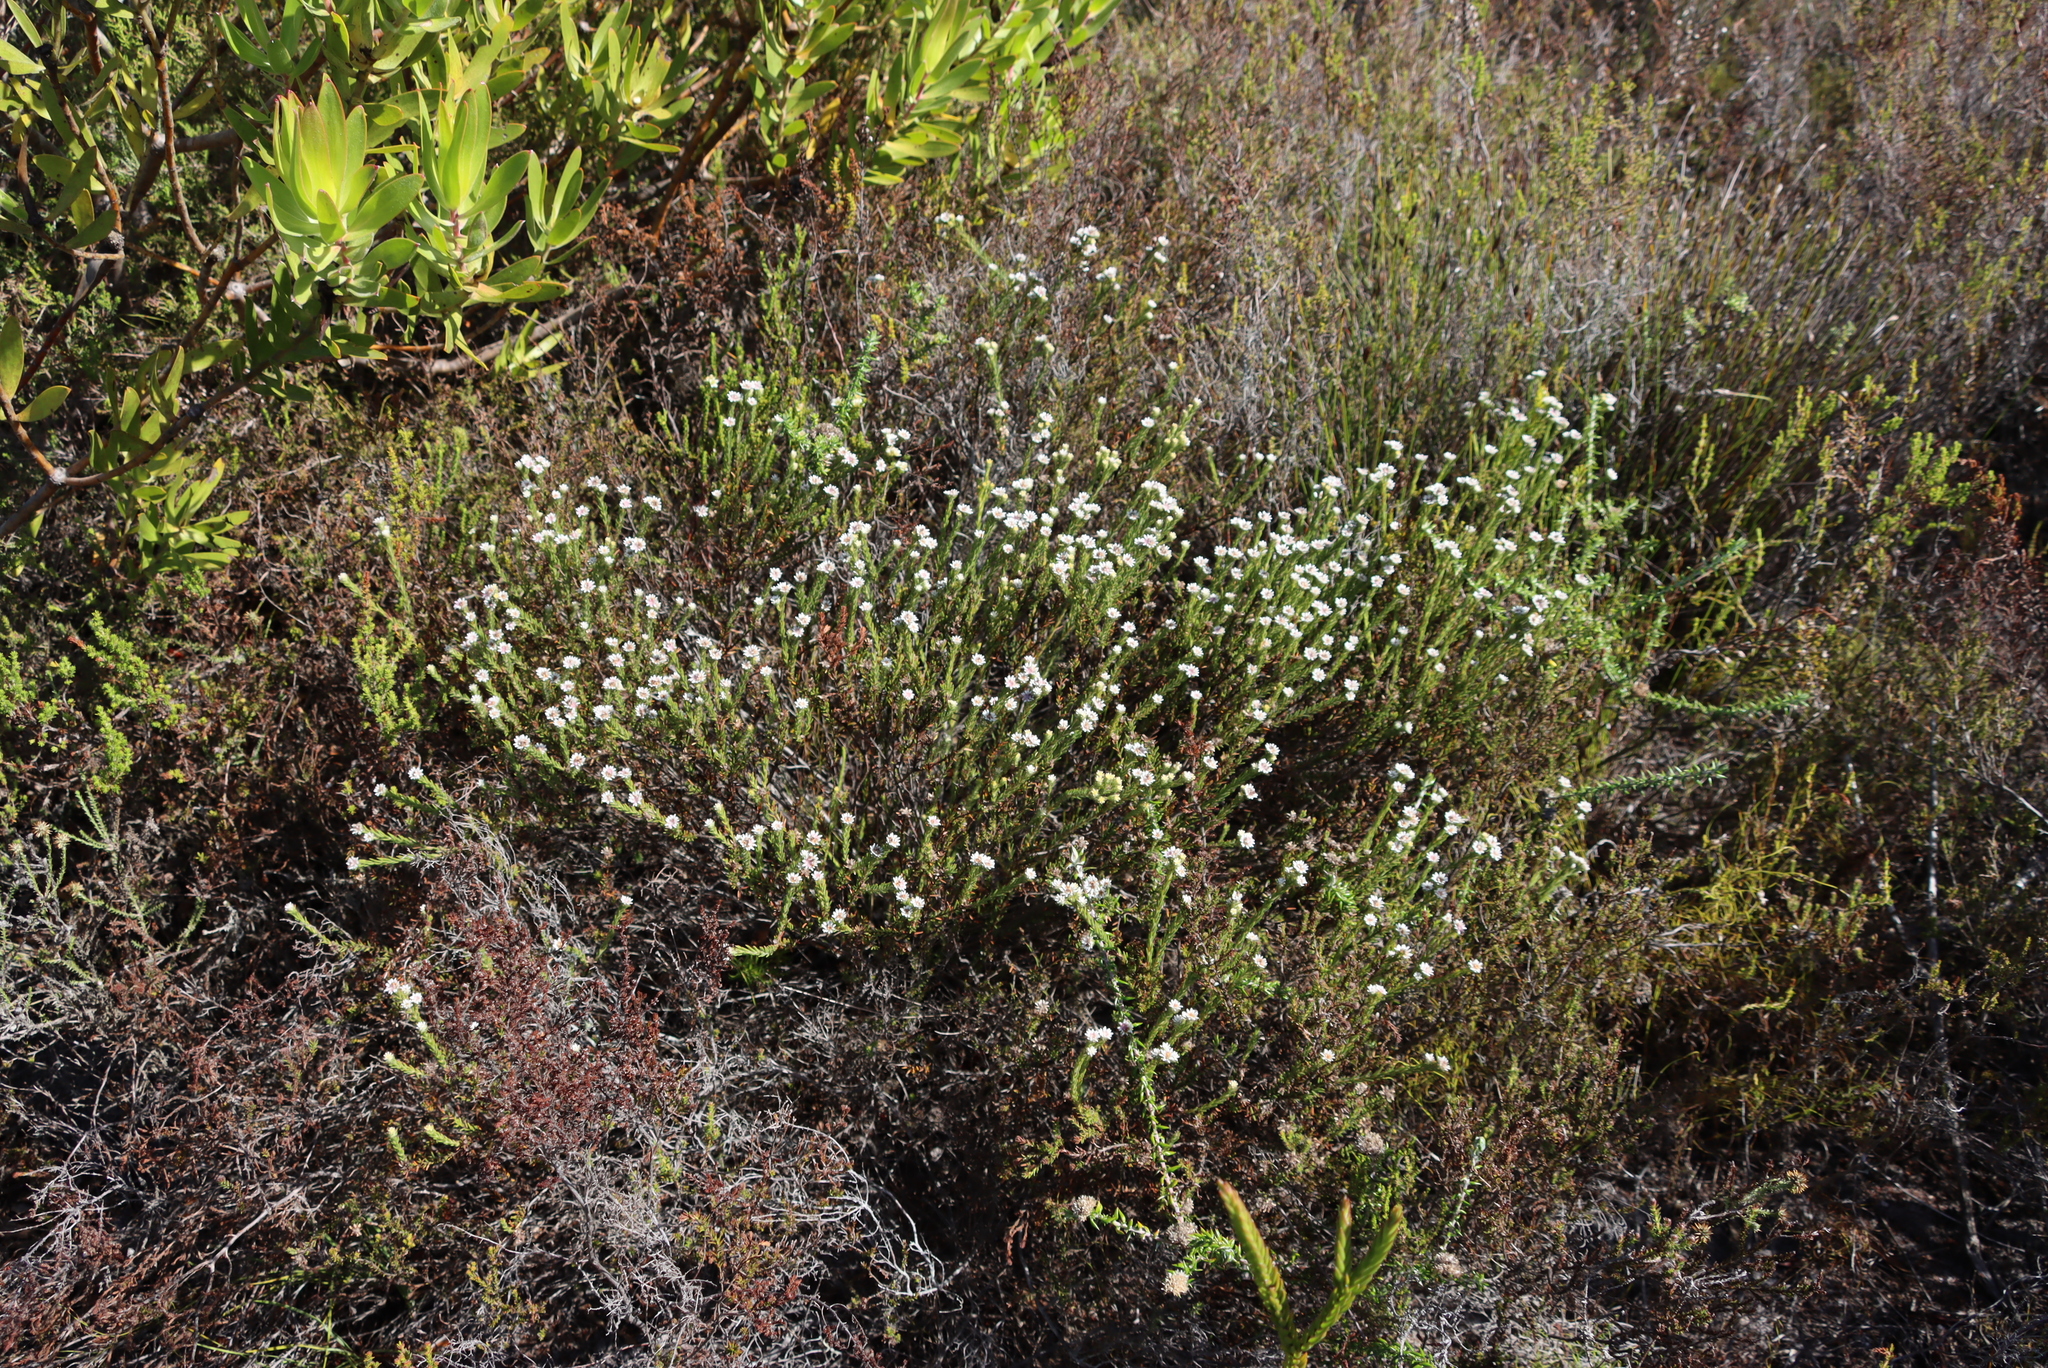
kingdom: Plantae
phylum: Tracheophyta
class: Magnoliopsida
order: Bruniales
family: Bruniaceae
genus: Staavia
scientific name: Staavia radiata
